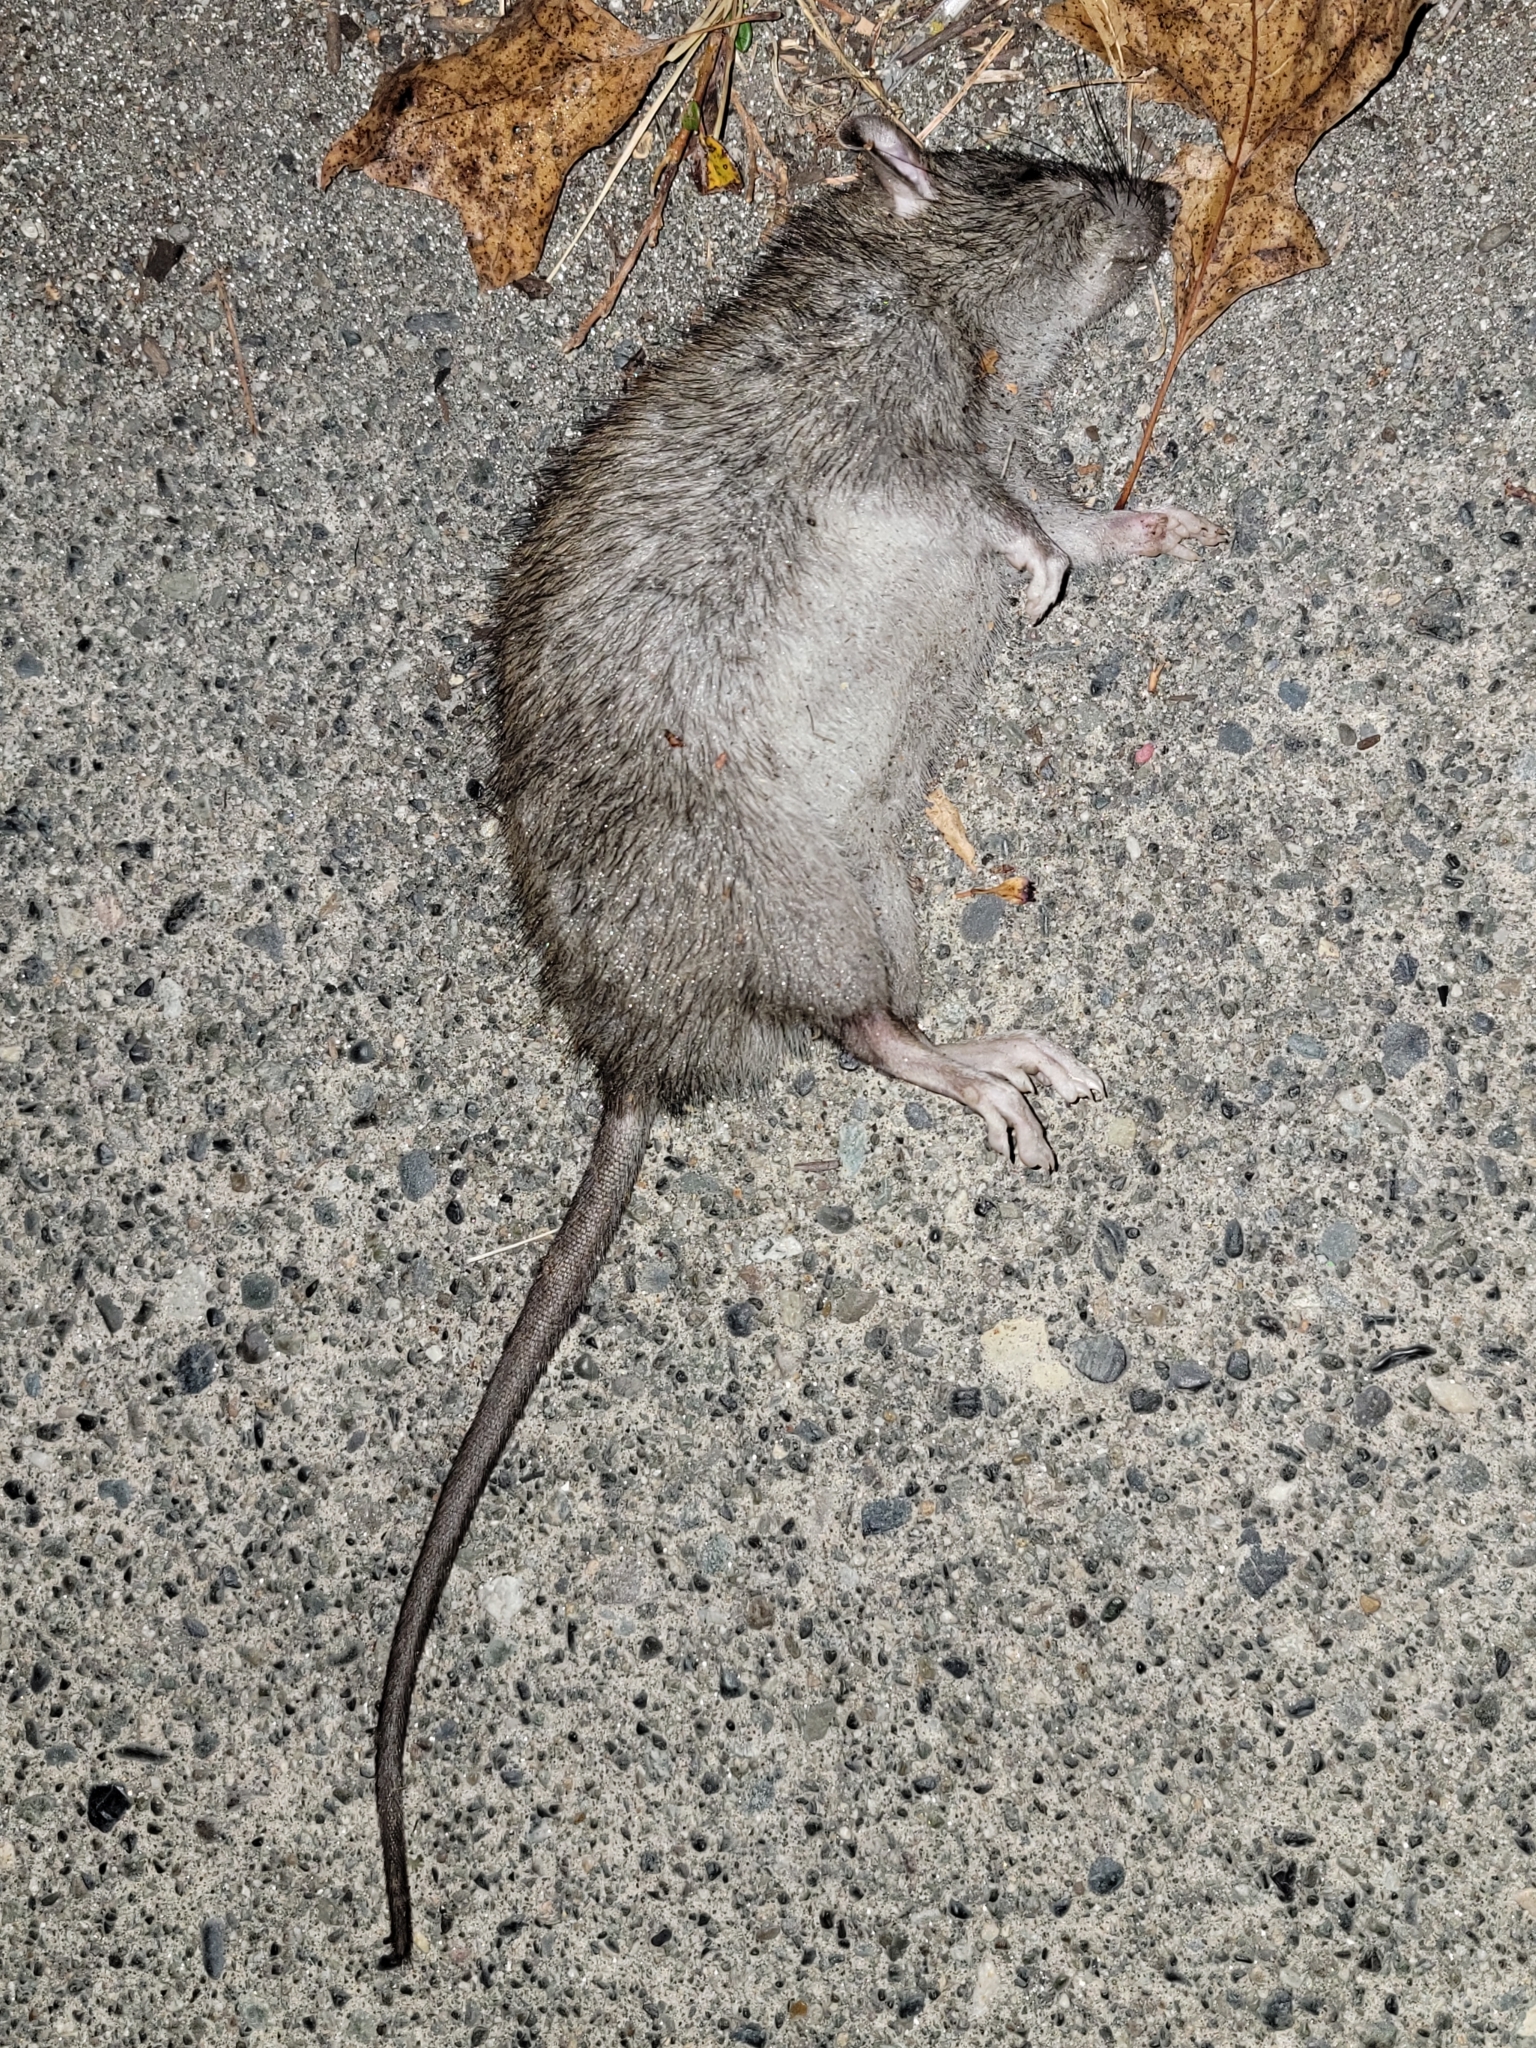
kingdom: Animalia
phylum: Chordata
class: Mammalia
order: Rodentia
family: Muridae
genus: Rattus
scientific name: Rattus norvegicus
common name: Brown rat
